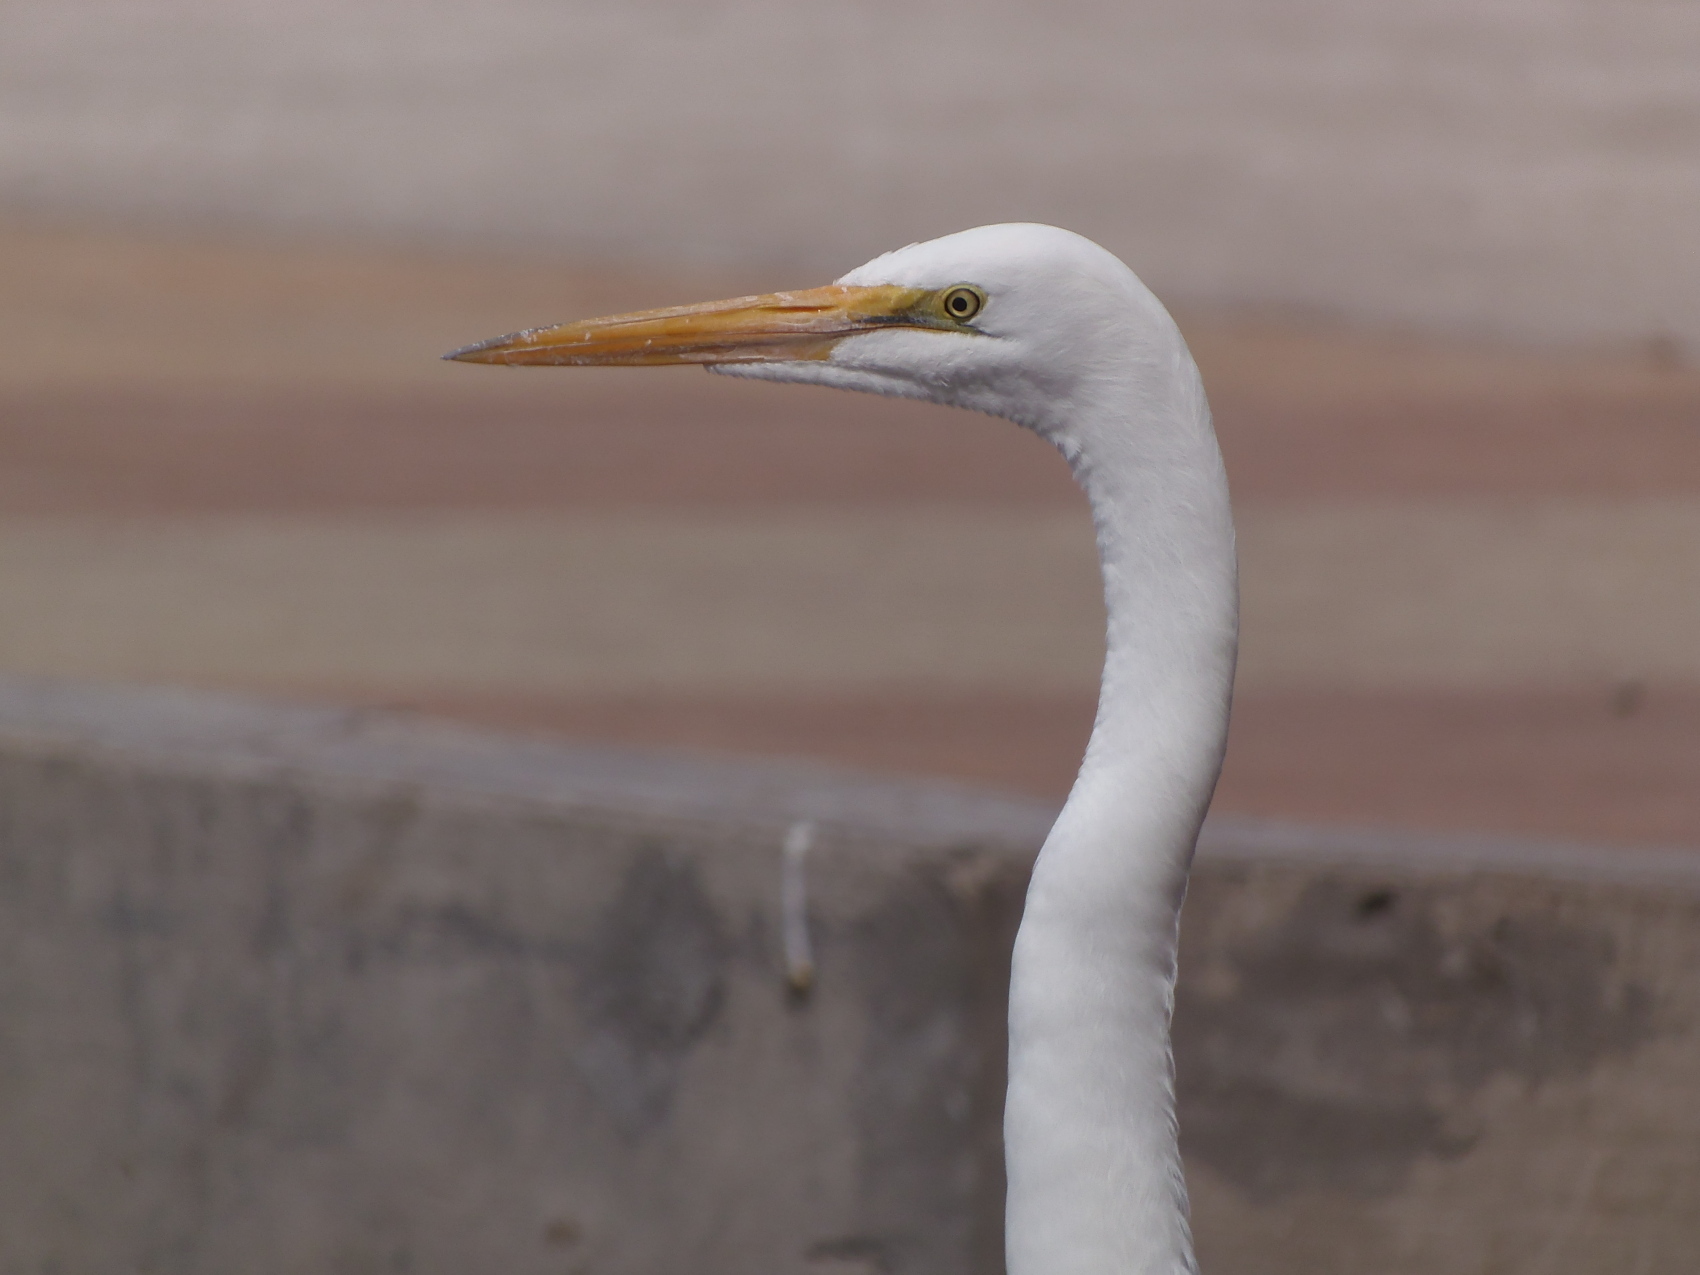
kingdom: Animalia
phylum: Chordata
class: Aves
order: Pelecaniformes
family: Ardeidae
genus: Ardea
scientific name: Ardea alba
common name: Great egret
